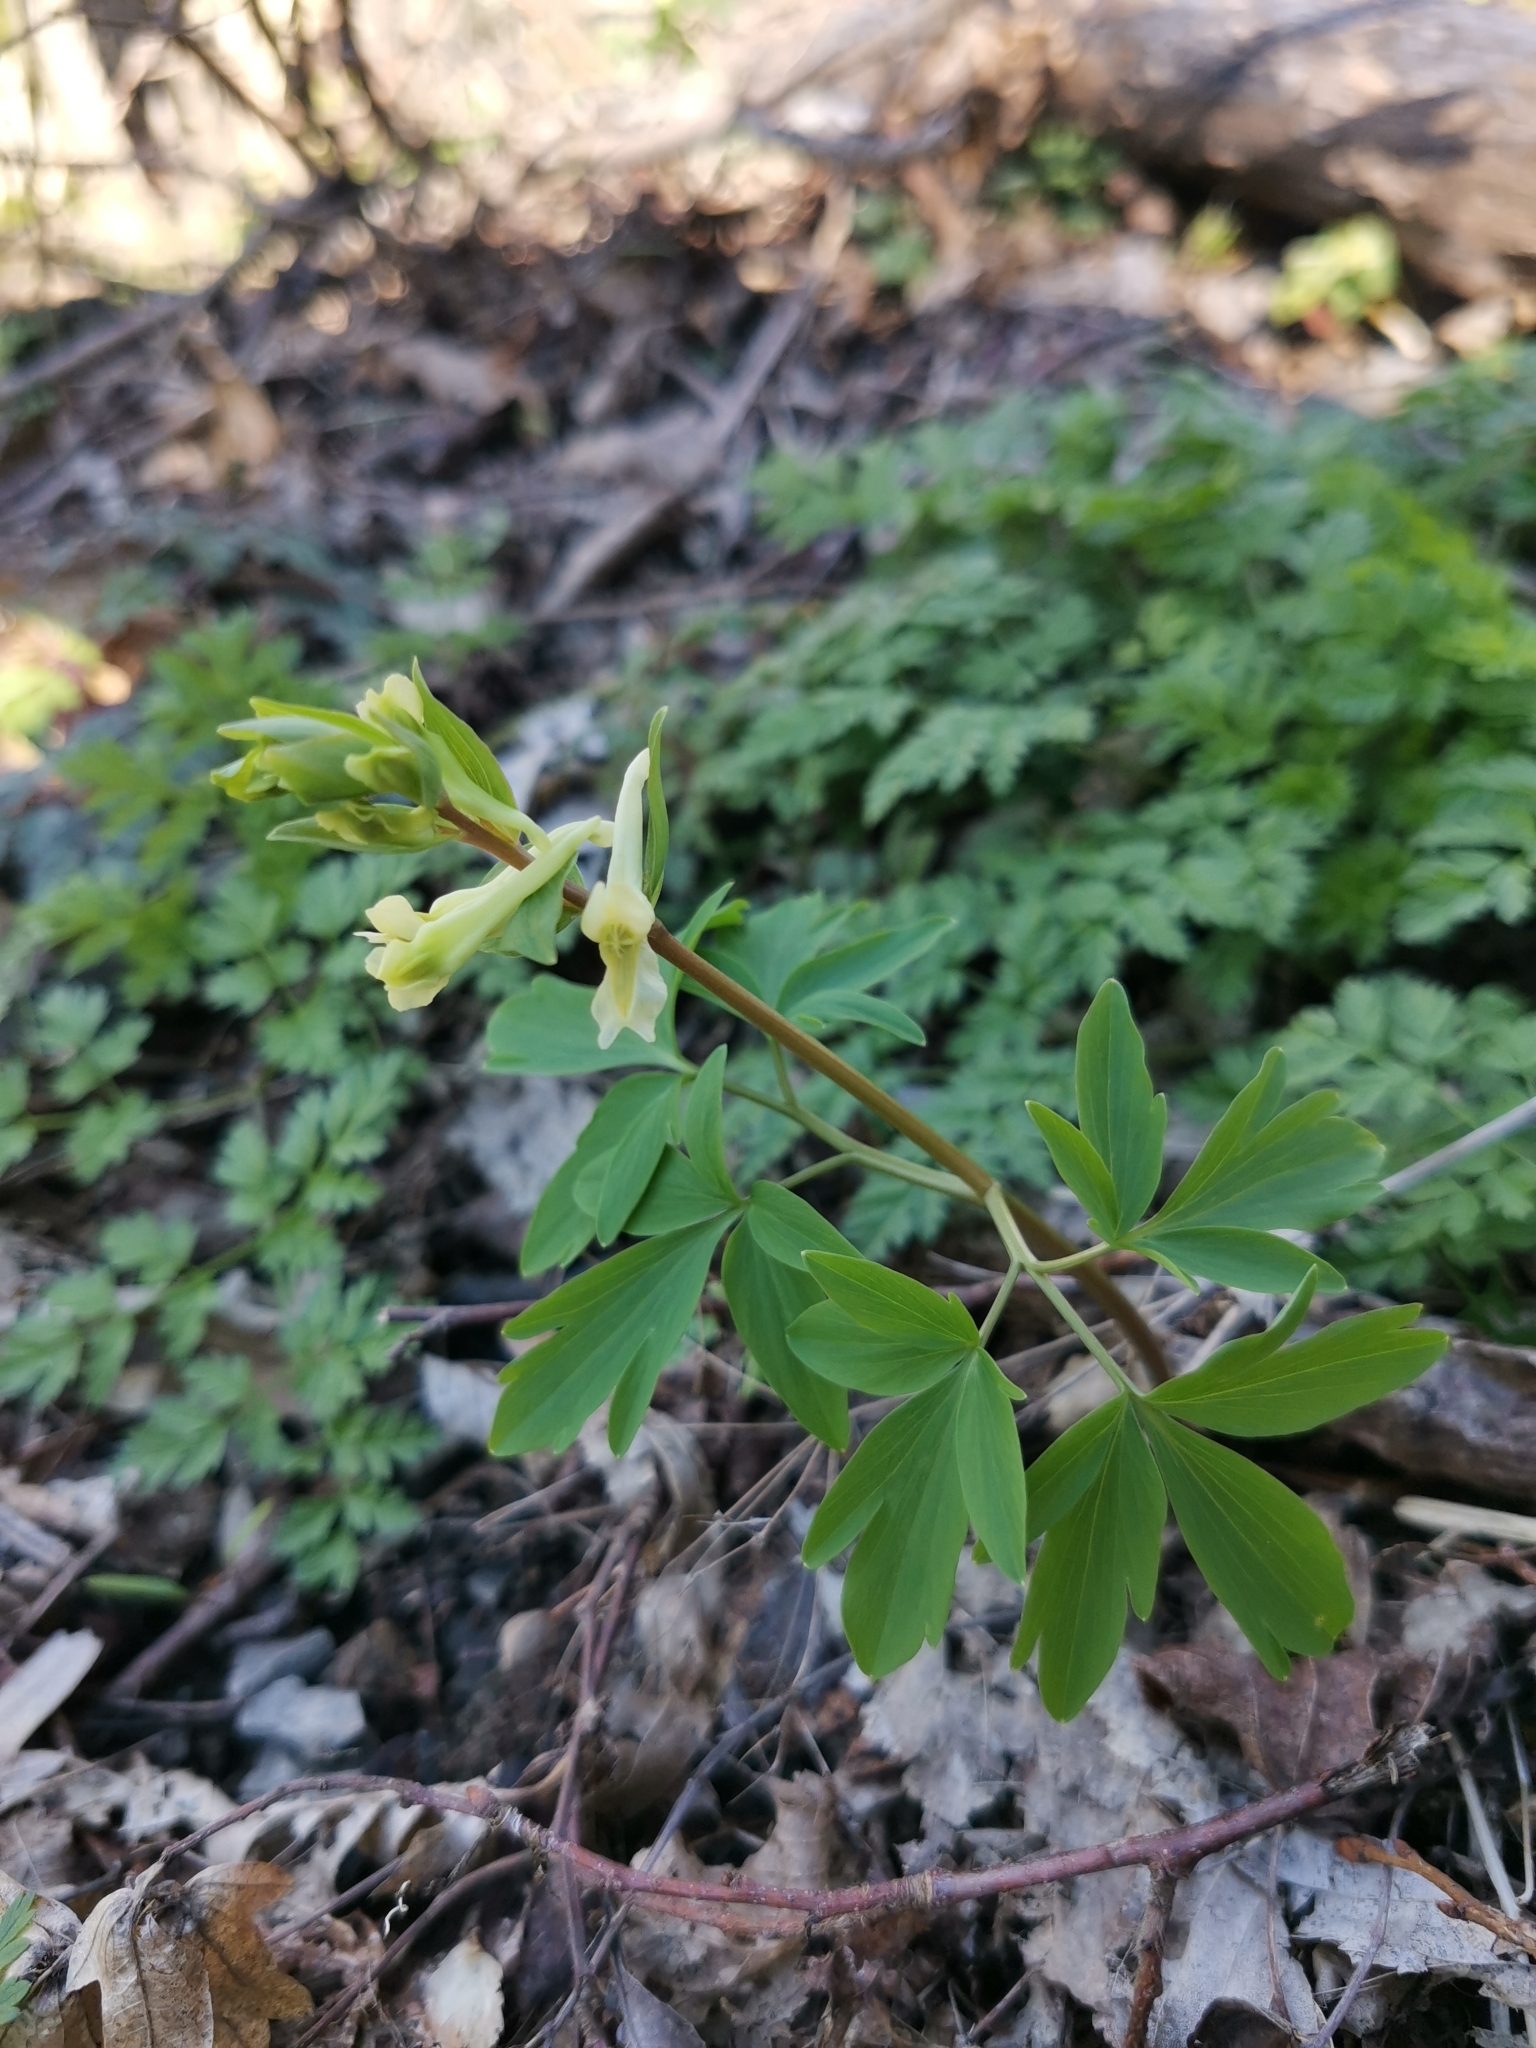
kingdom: Plantae
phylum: Tracheophyta
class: Magnoliopsida
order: Ranunculales
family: Papaveraceae
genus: Corydalis
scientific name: Corydalis cava
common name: Hollowroot
